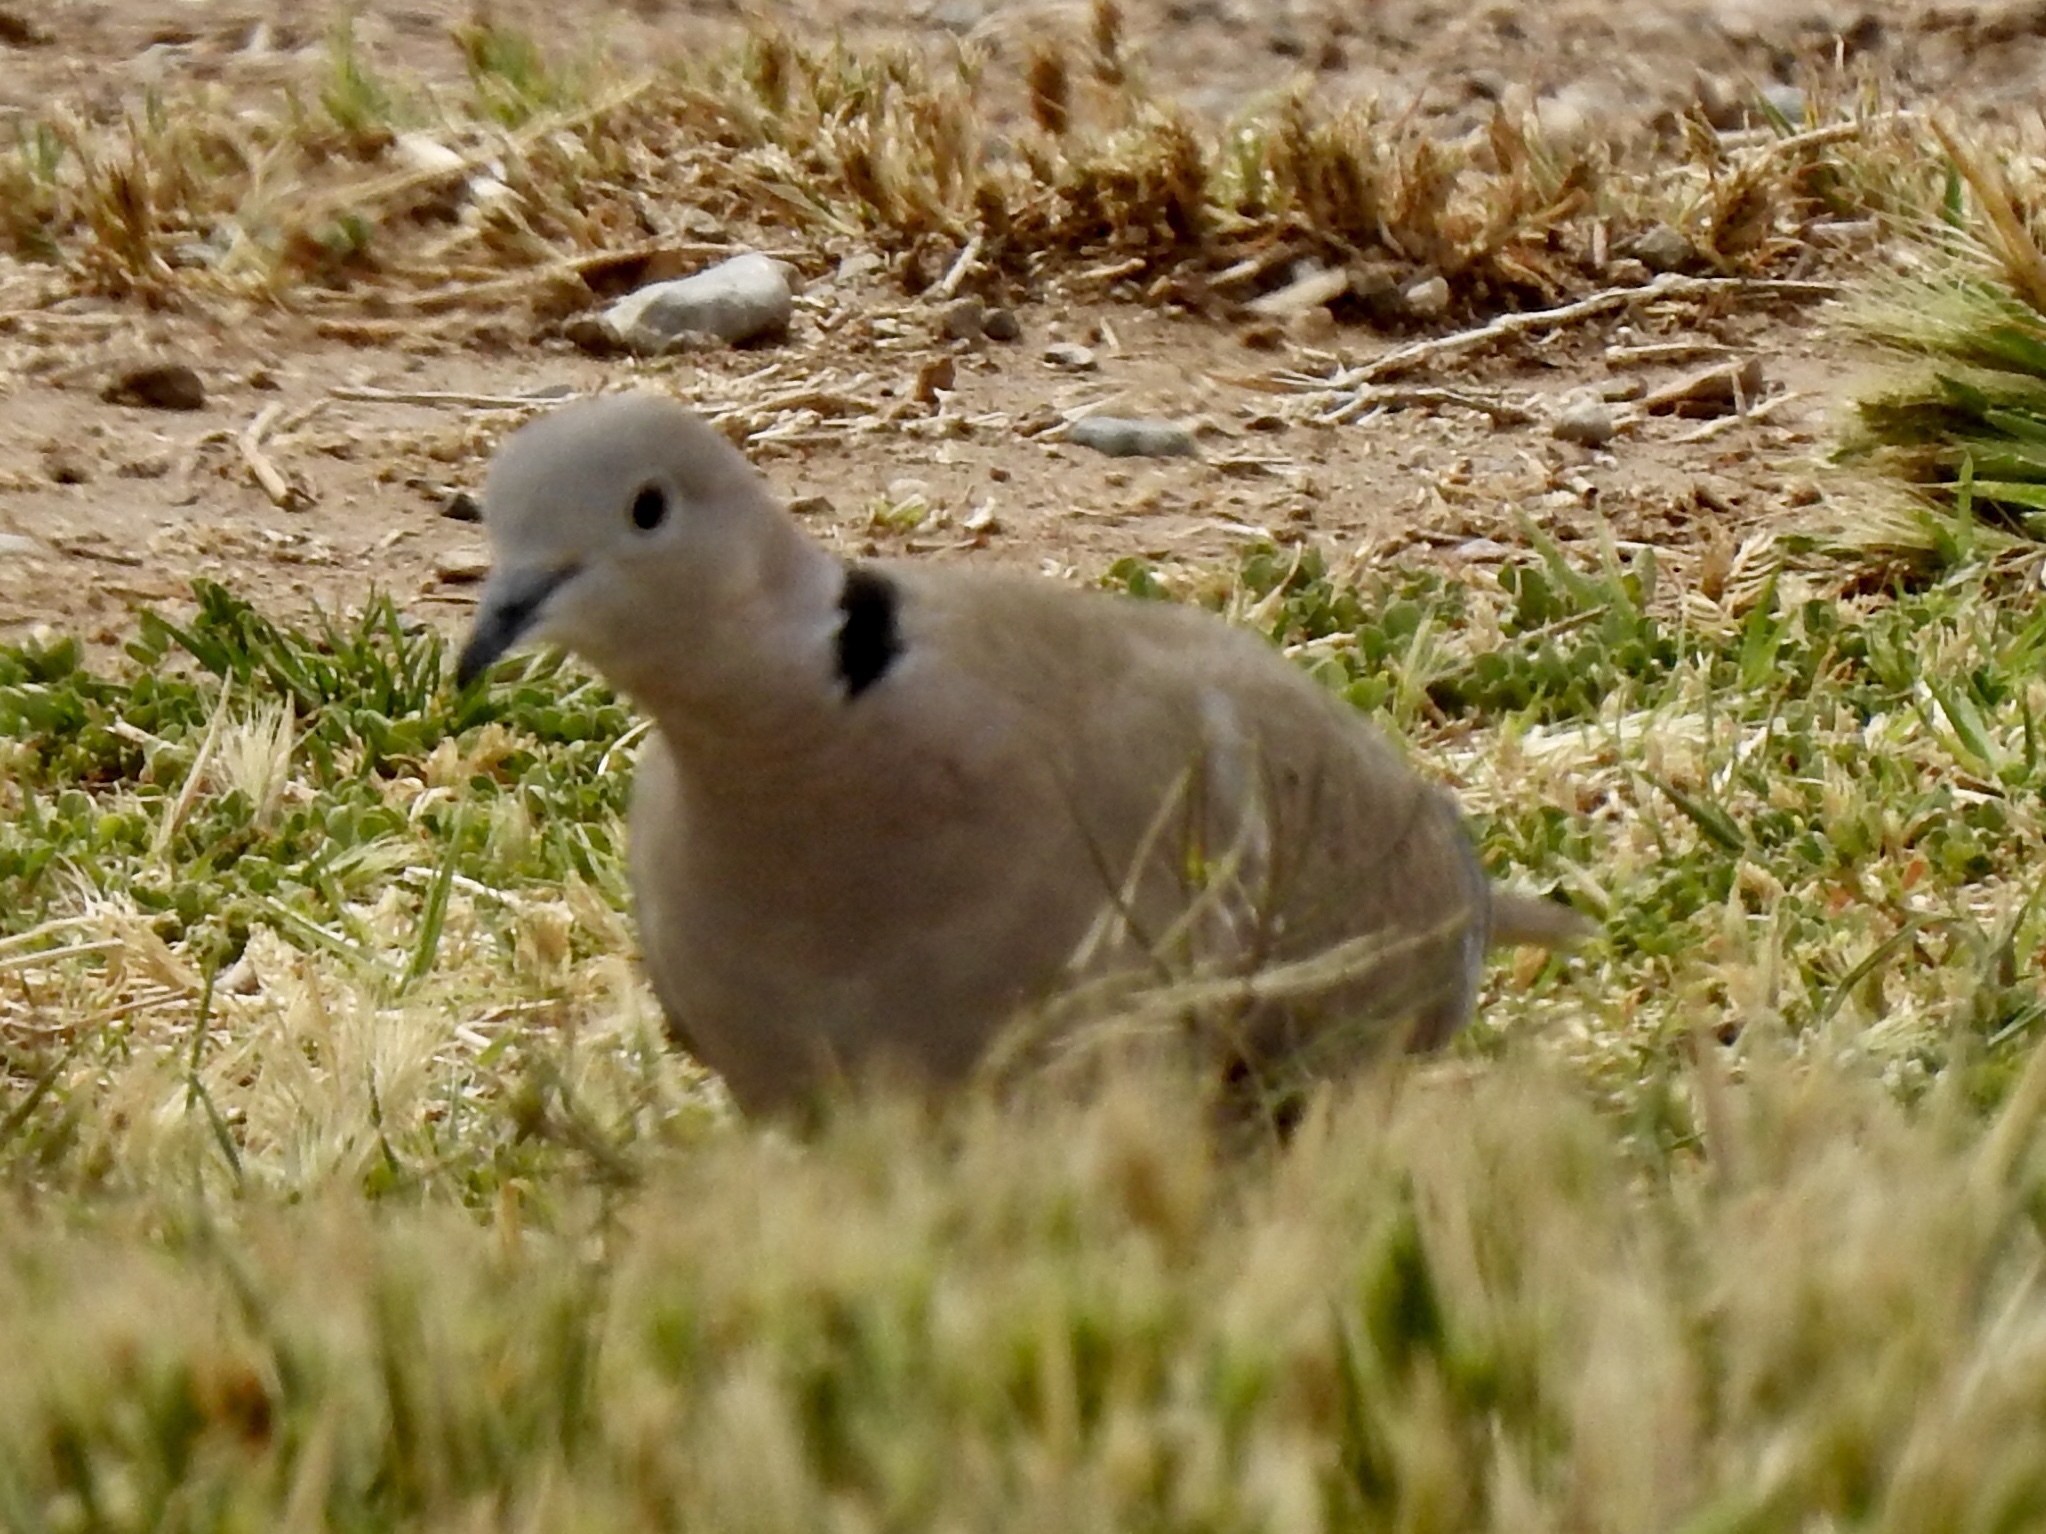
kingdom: Animalia
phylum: Chordata
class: Aves
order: Columbiformes
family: Columbidae
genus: Streptopelia
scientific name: Streptopelia decaocto
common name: Eurasian collared dove
